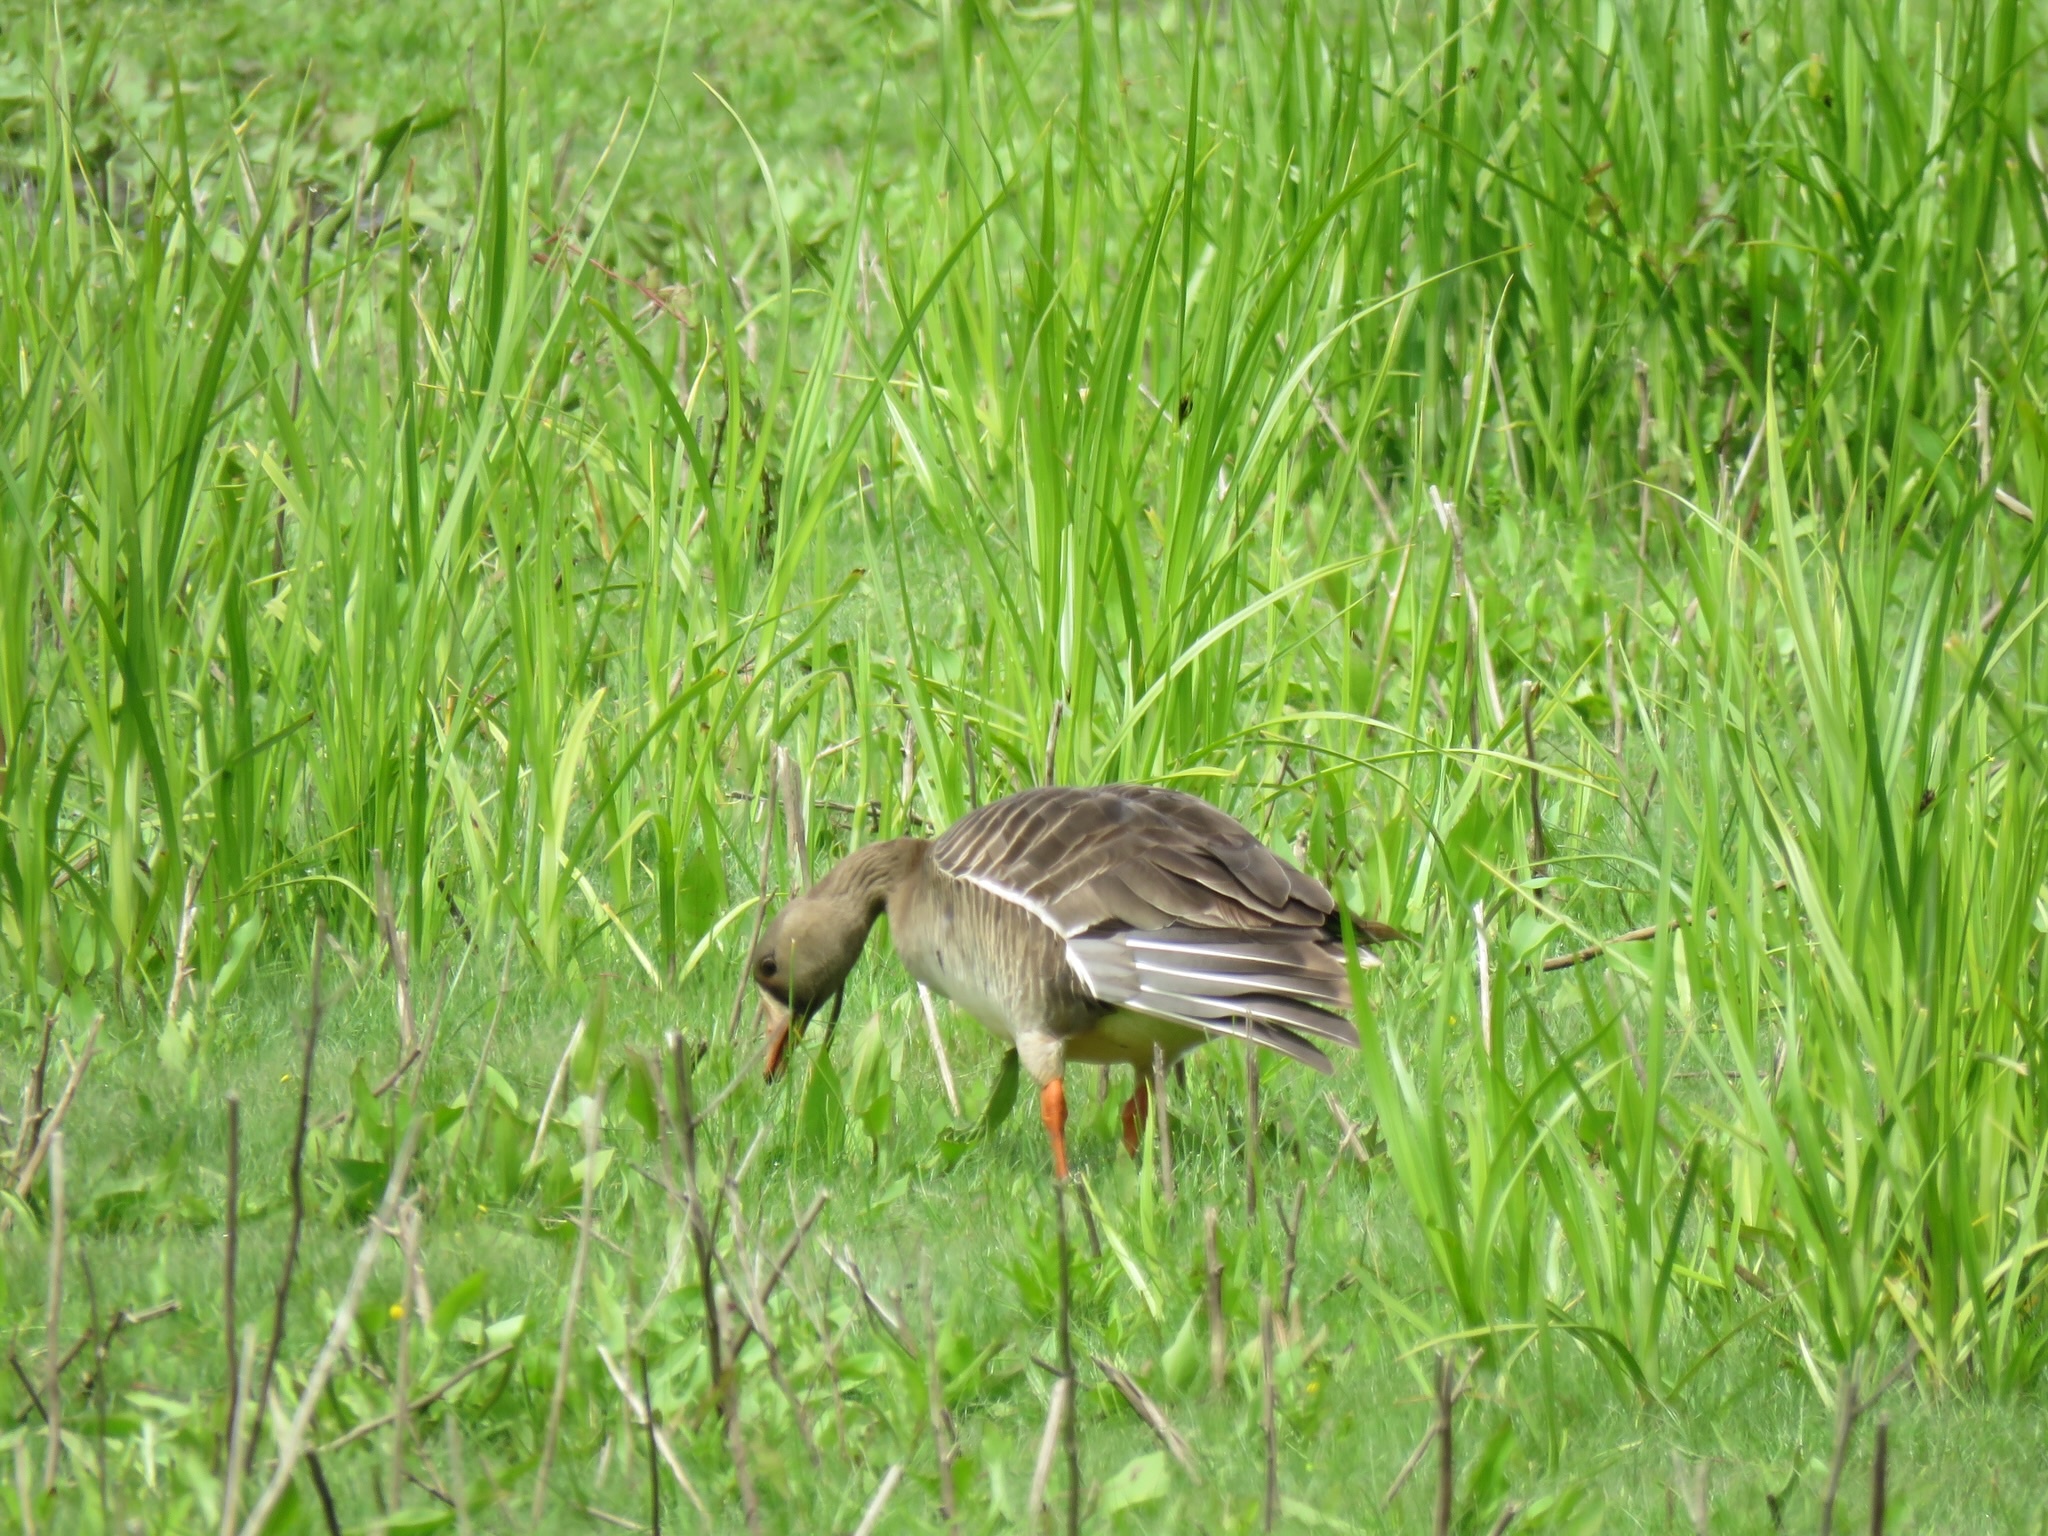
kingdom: Animalia
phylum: Chordata
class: Aves
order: Anseriformes
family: Anatidae
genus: Anser
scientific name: Anser albifrons
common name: Greater white-fronted goose
